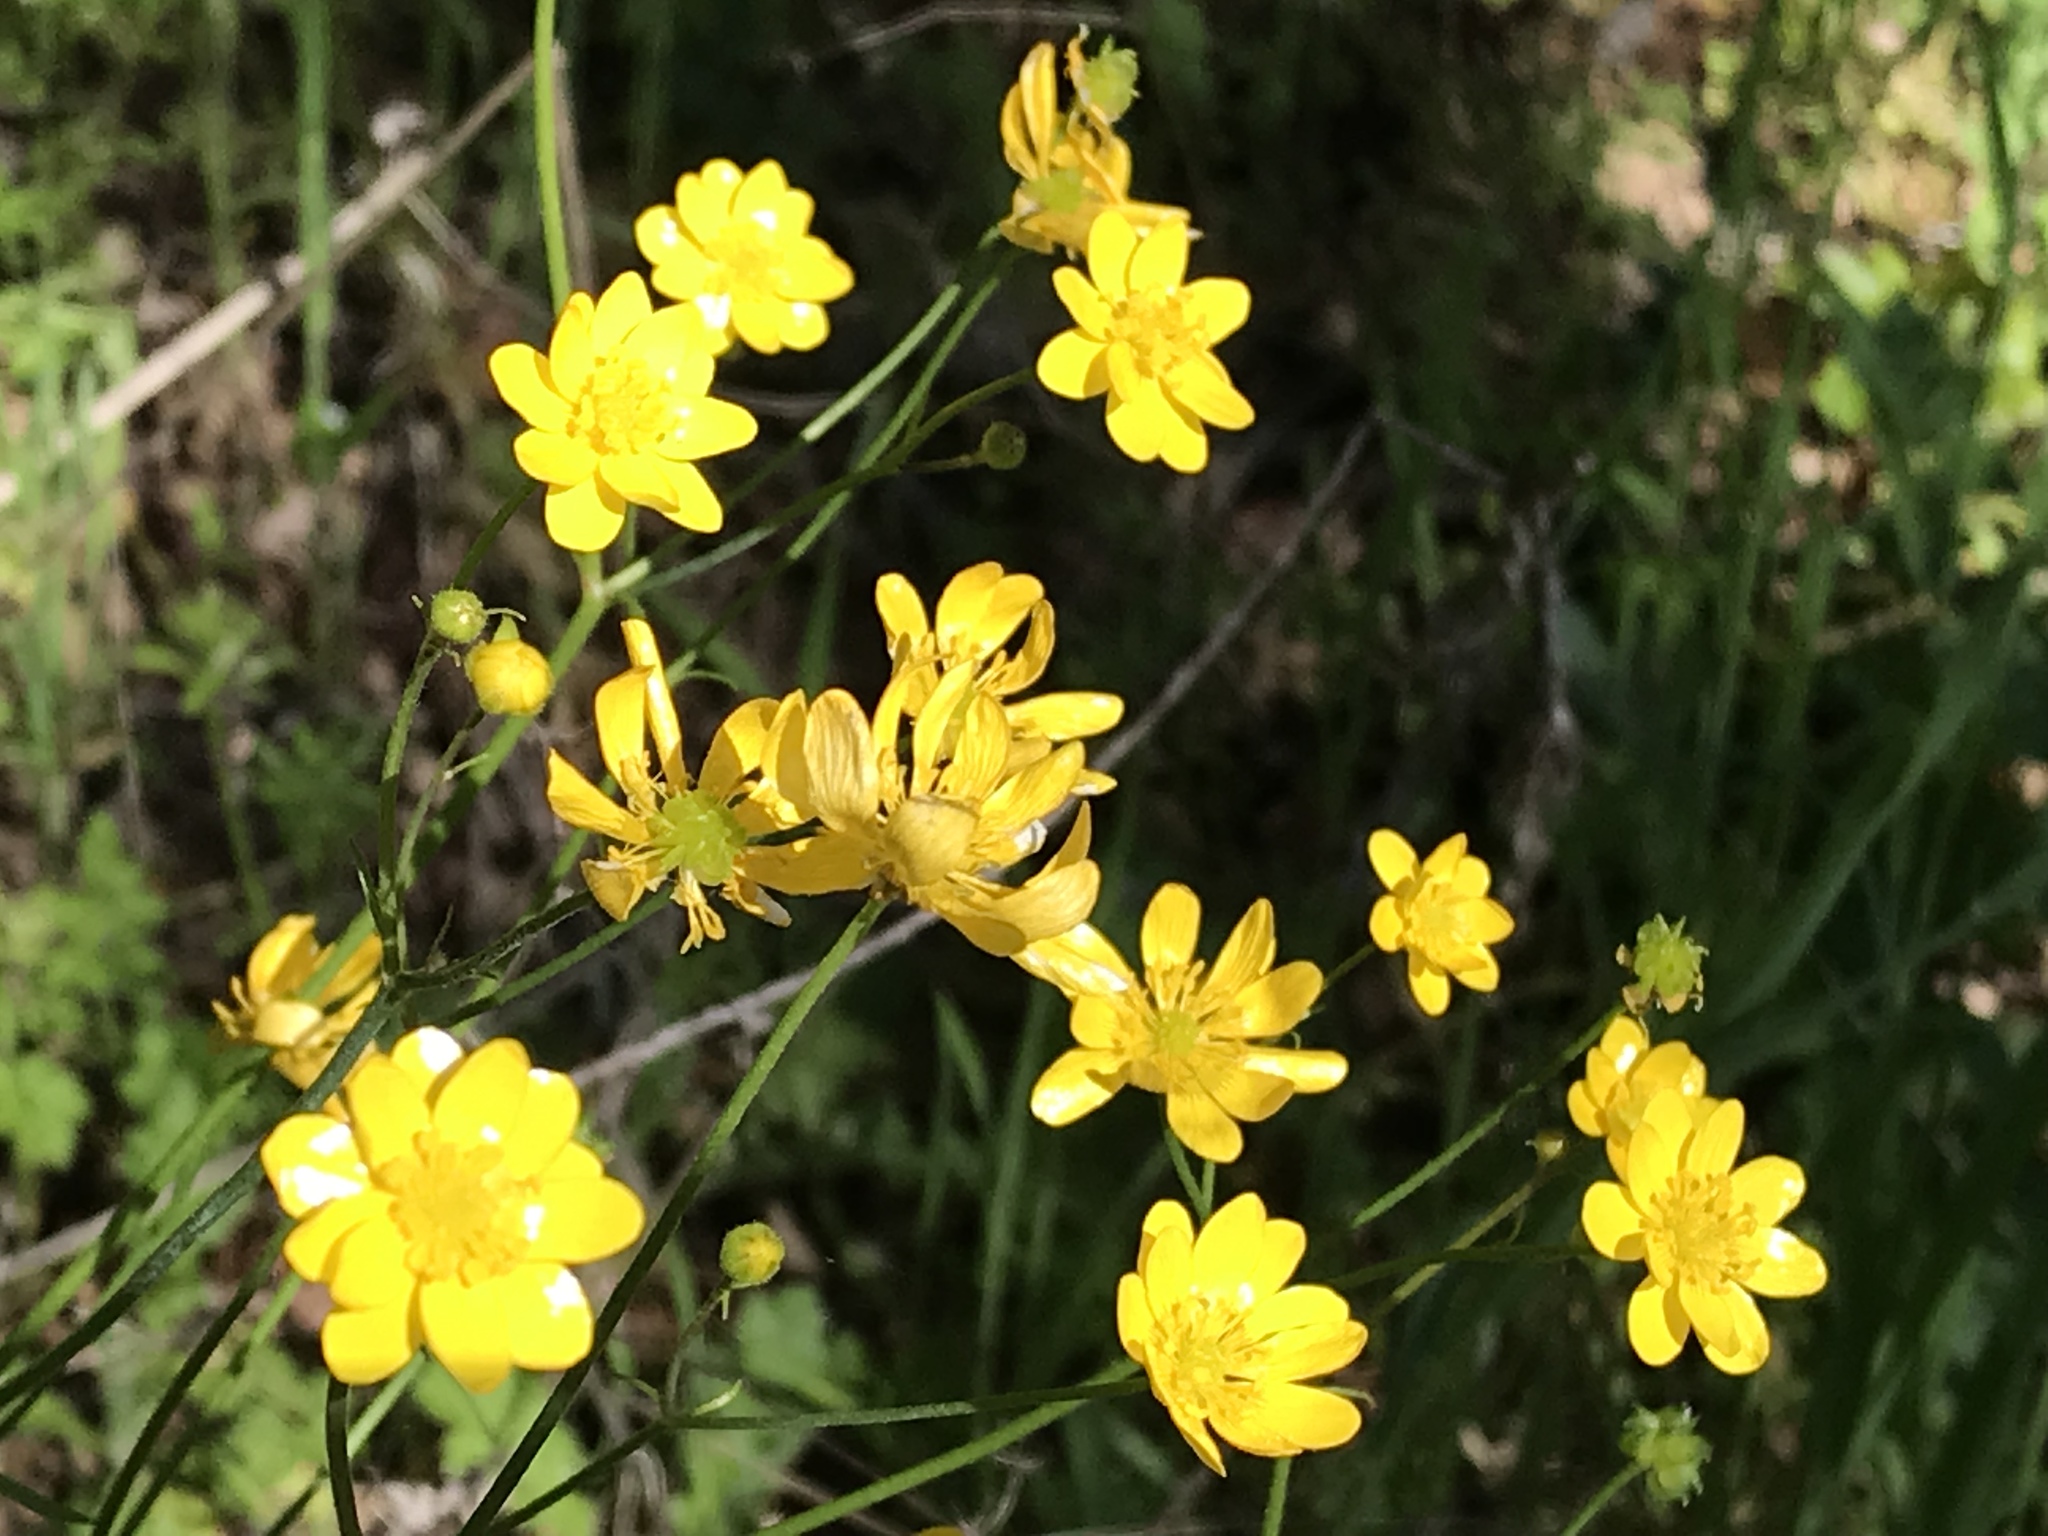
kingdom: Plantae
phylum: Tracheophyta
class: Magnoliopsida
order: Ranunculales
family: Ranunculaceae
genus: Ranunculus
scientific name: Ranunculus californicus
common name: California buttercup
